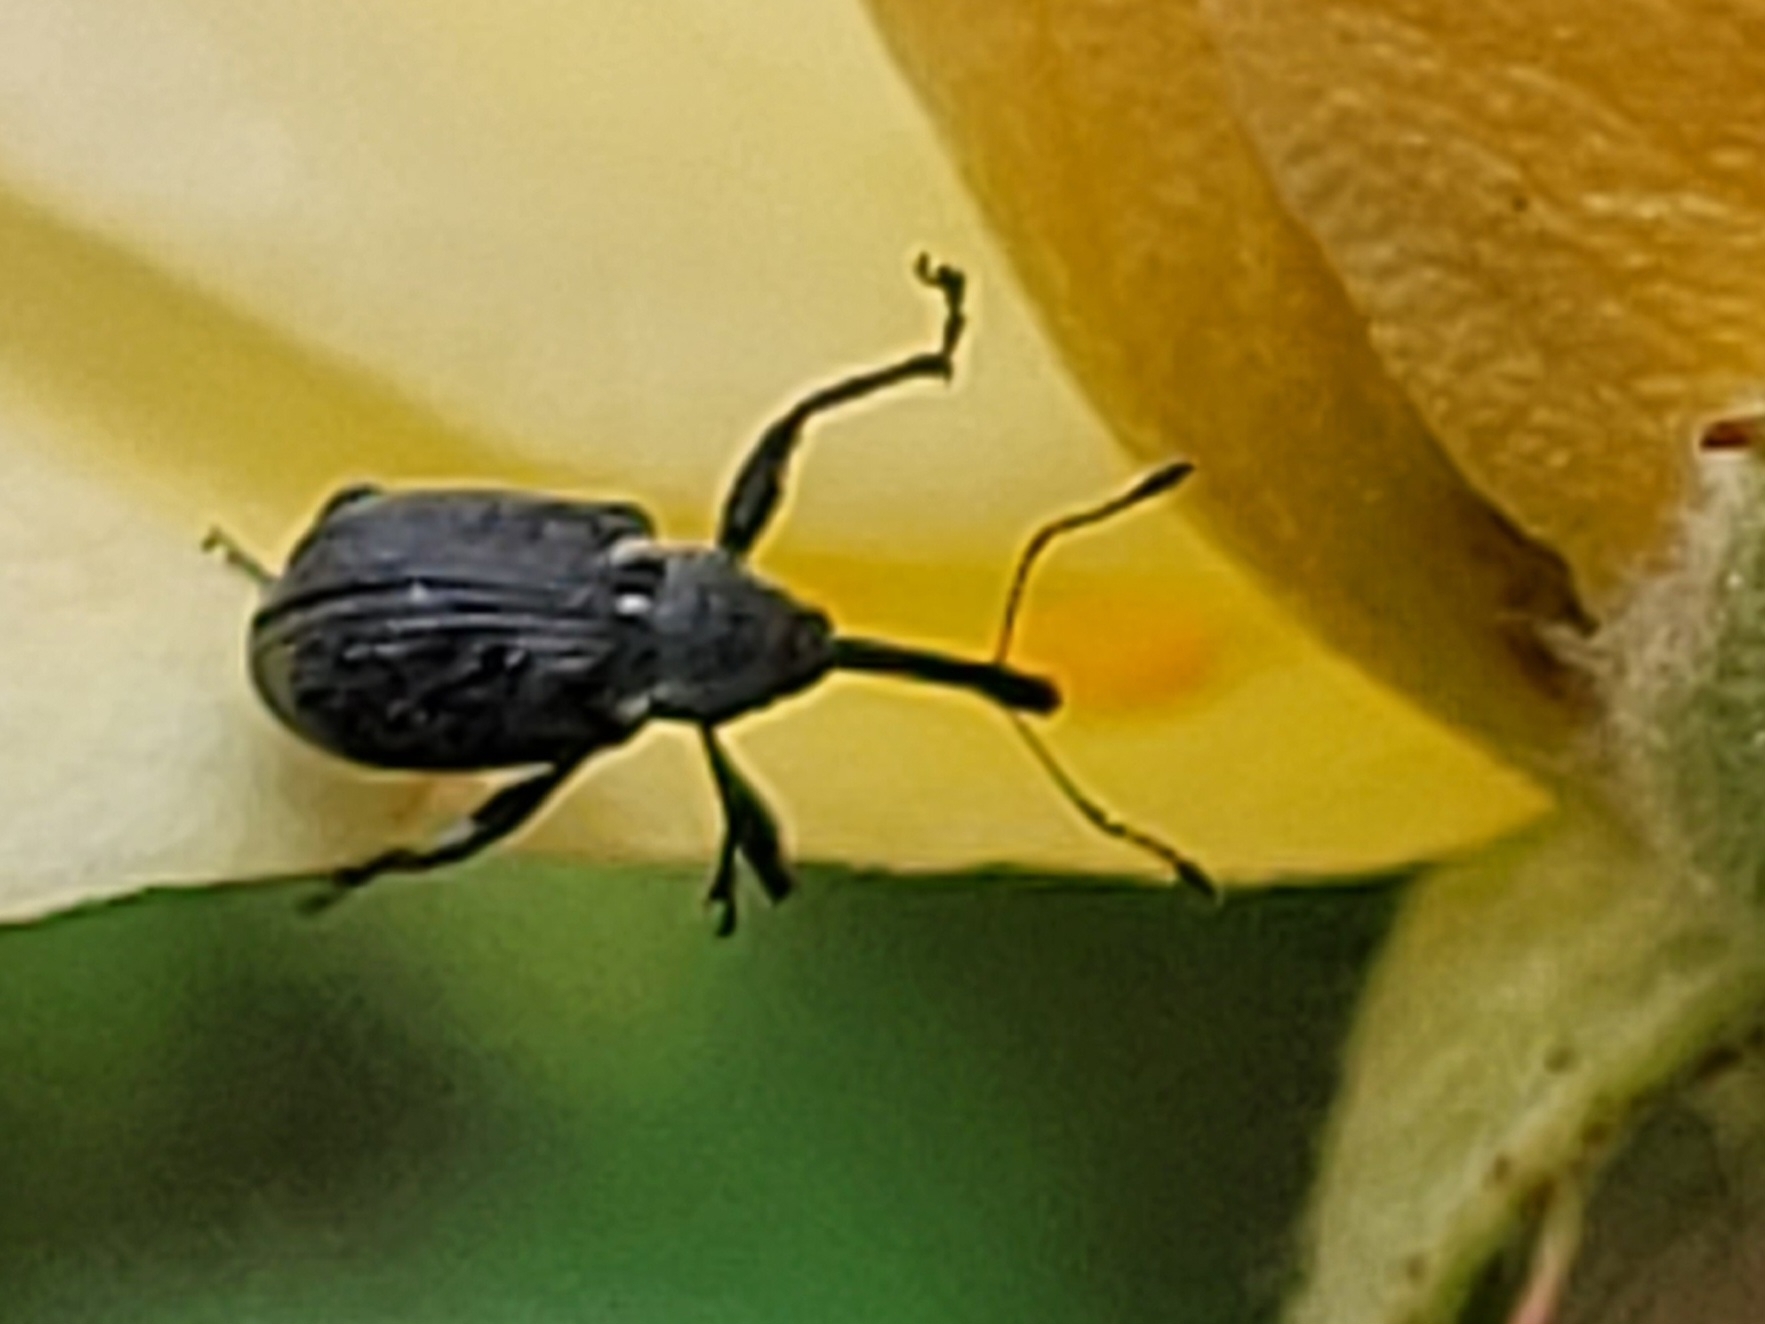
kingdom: Animalia
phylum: Arthropoda
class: Insecta
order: Coleoptera
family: Curculionidae
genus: Anthonomus
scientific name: Anthonomus rubi
